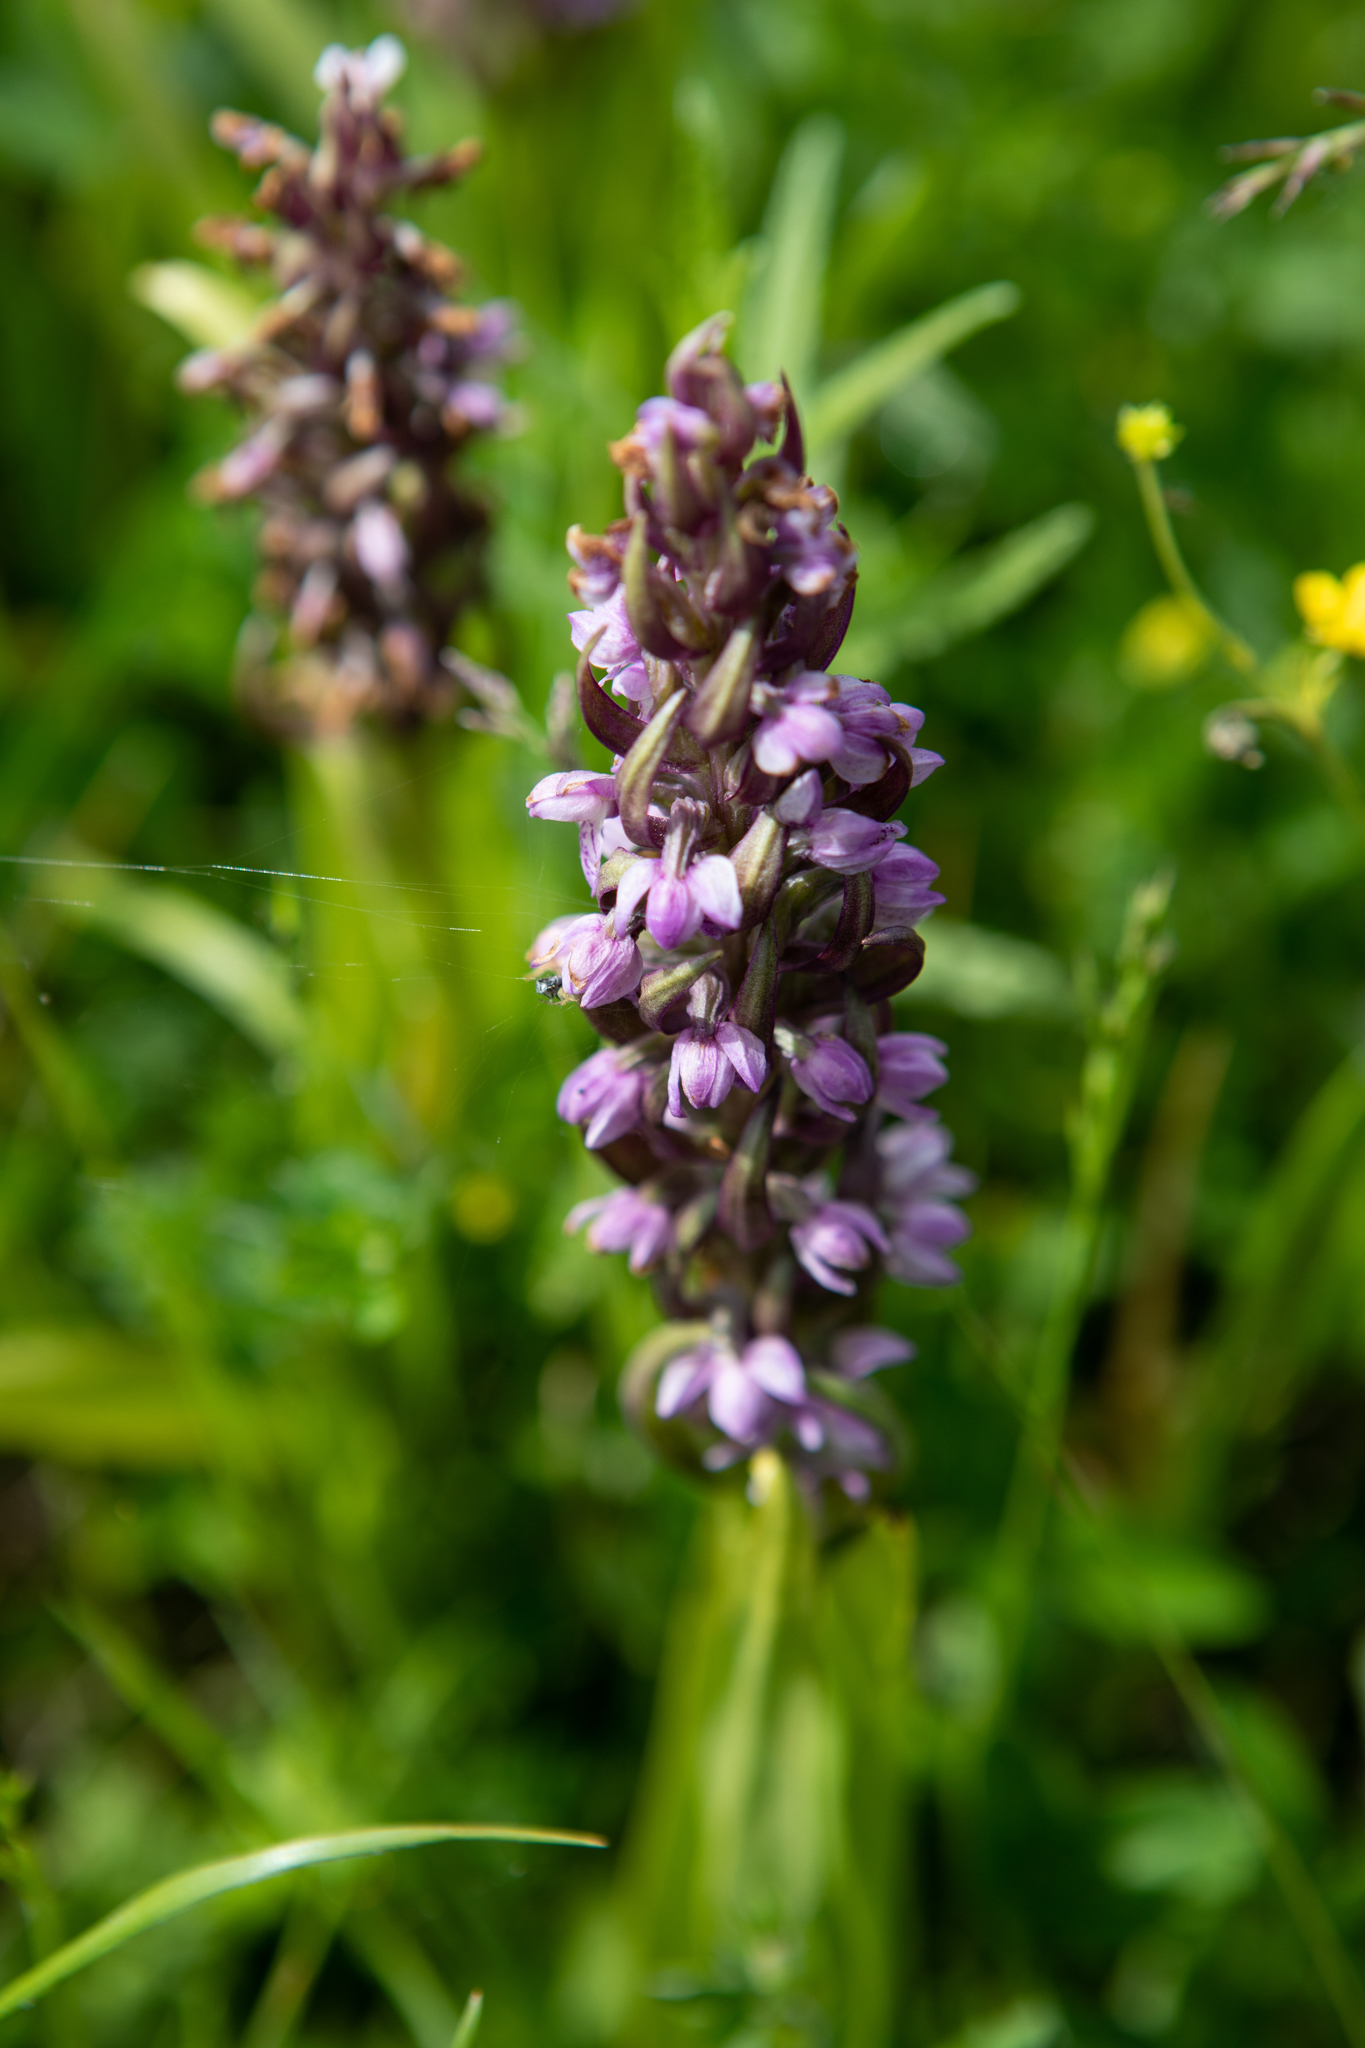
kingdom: Plantae
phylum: Tracheophyta
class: Liliopsida
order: Asparagales
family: Orchidaceae
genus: Dactylorhiza
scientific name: Dactylorhiza incarnata
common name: Early marsh-orchid
